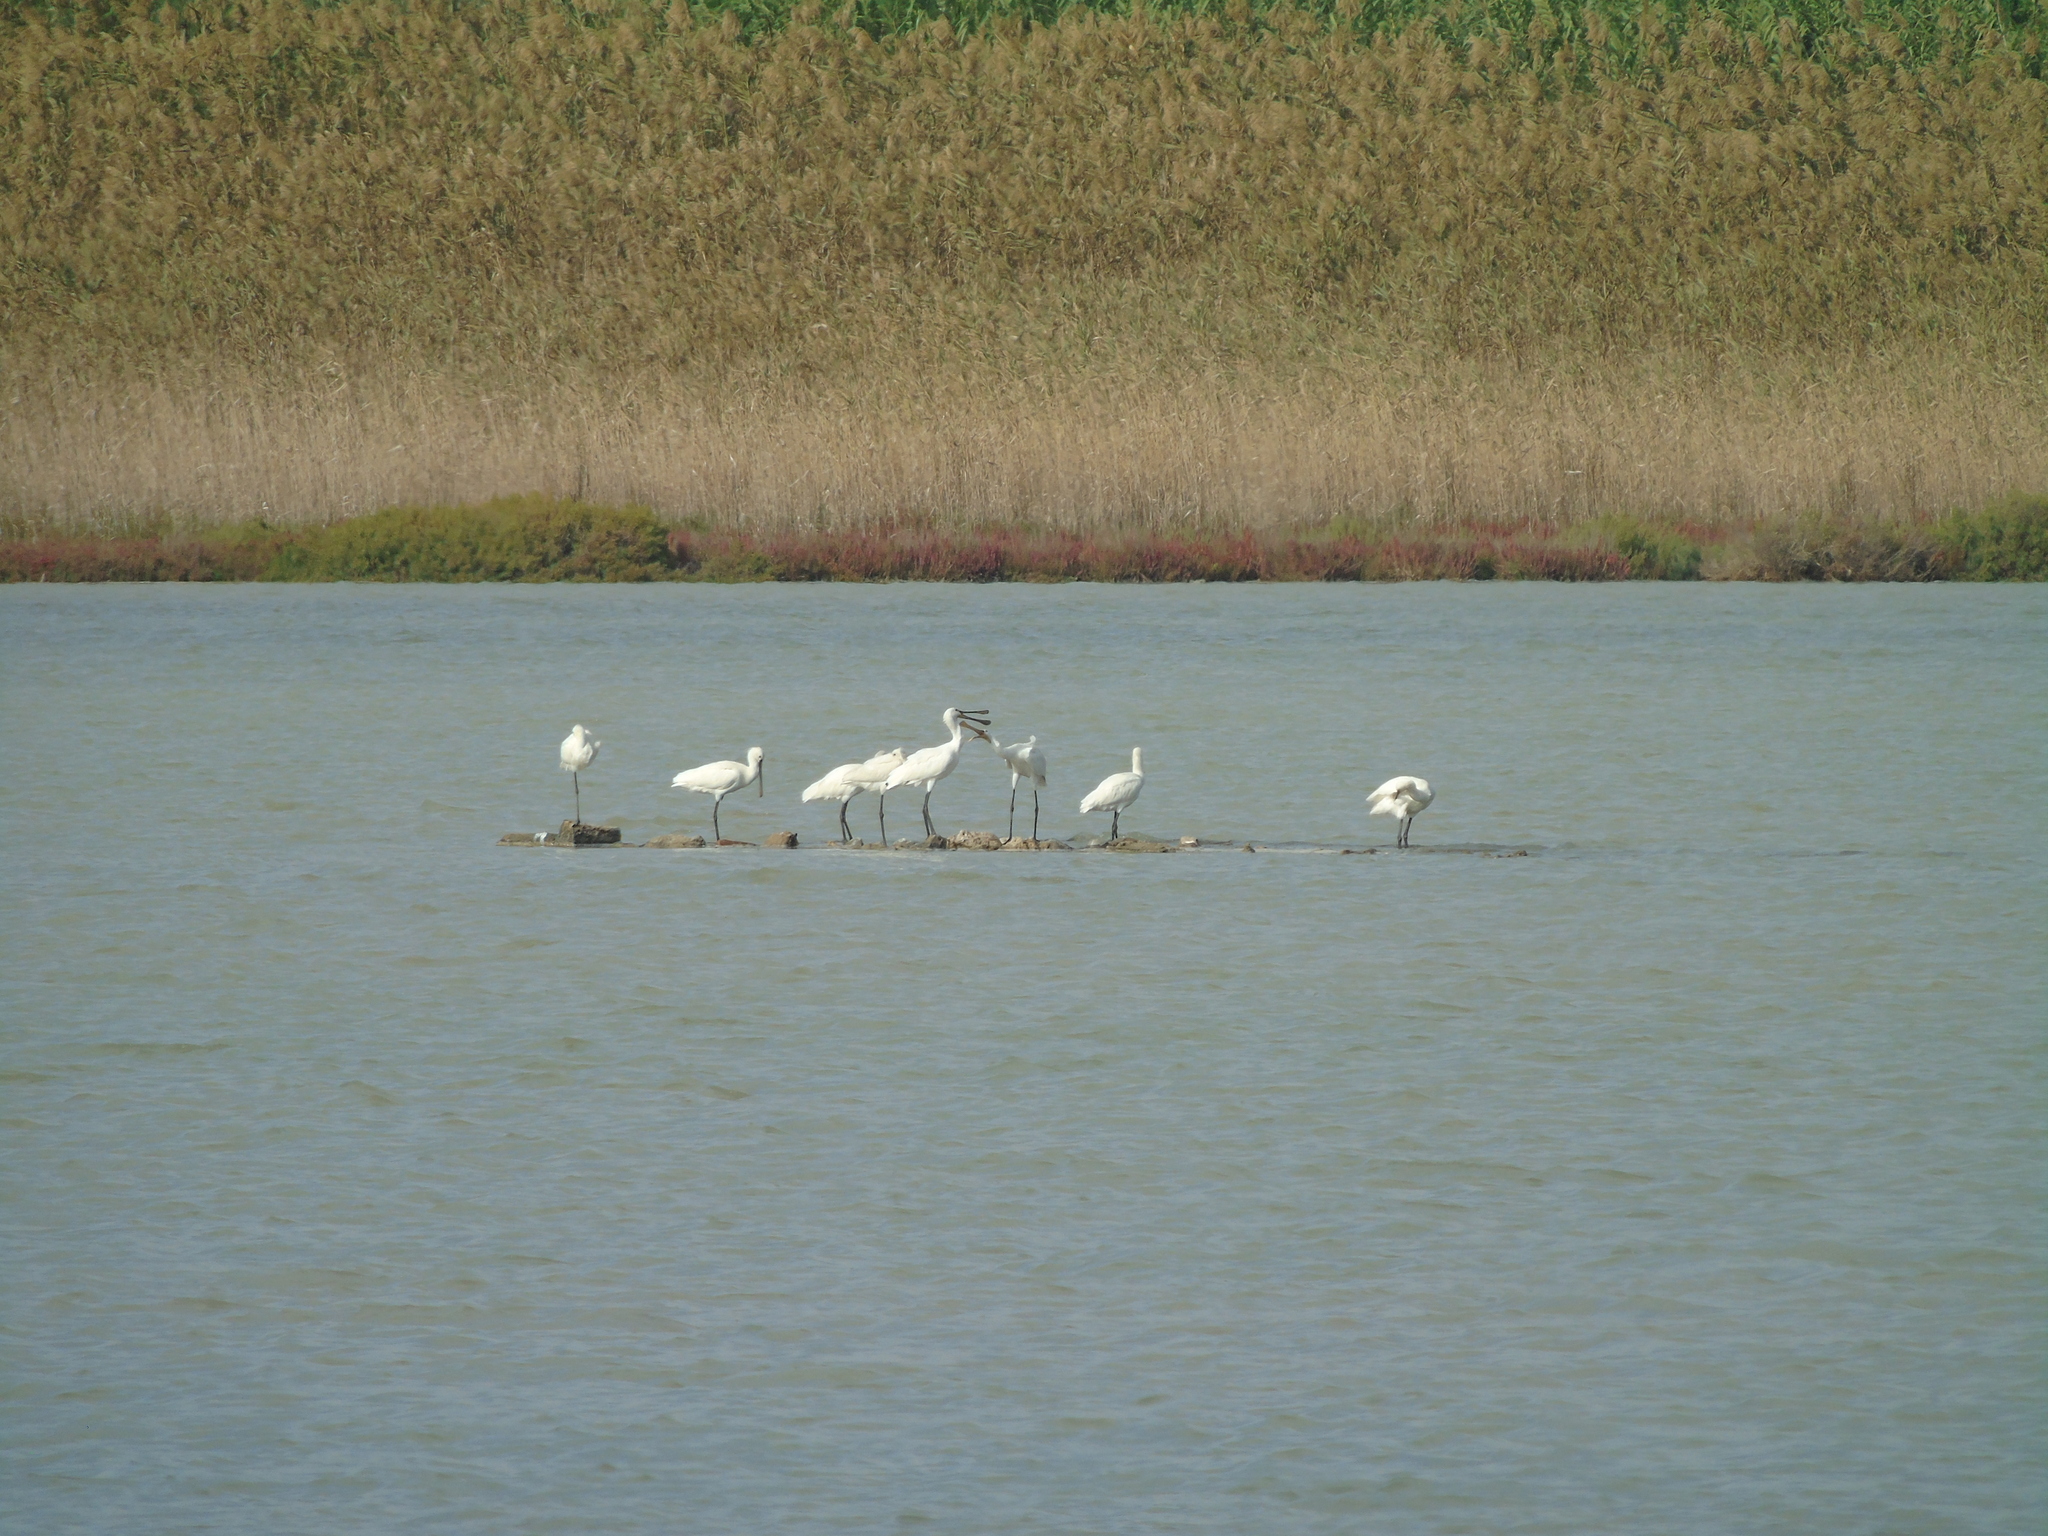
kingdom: Animalia
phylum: Chordata
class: Aves
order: Pelecaniformes
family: Threskiornithidae
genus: Platalea
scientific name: Platalea leucorodia
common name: Eurasian spoonbill
